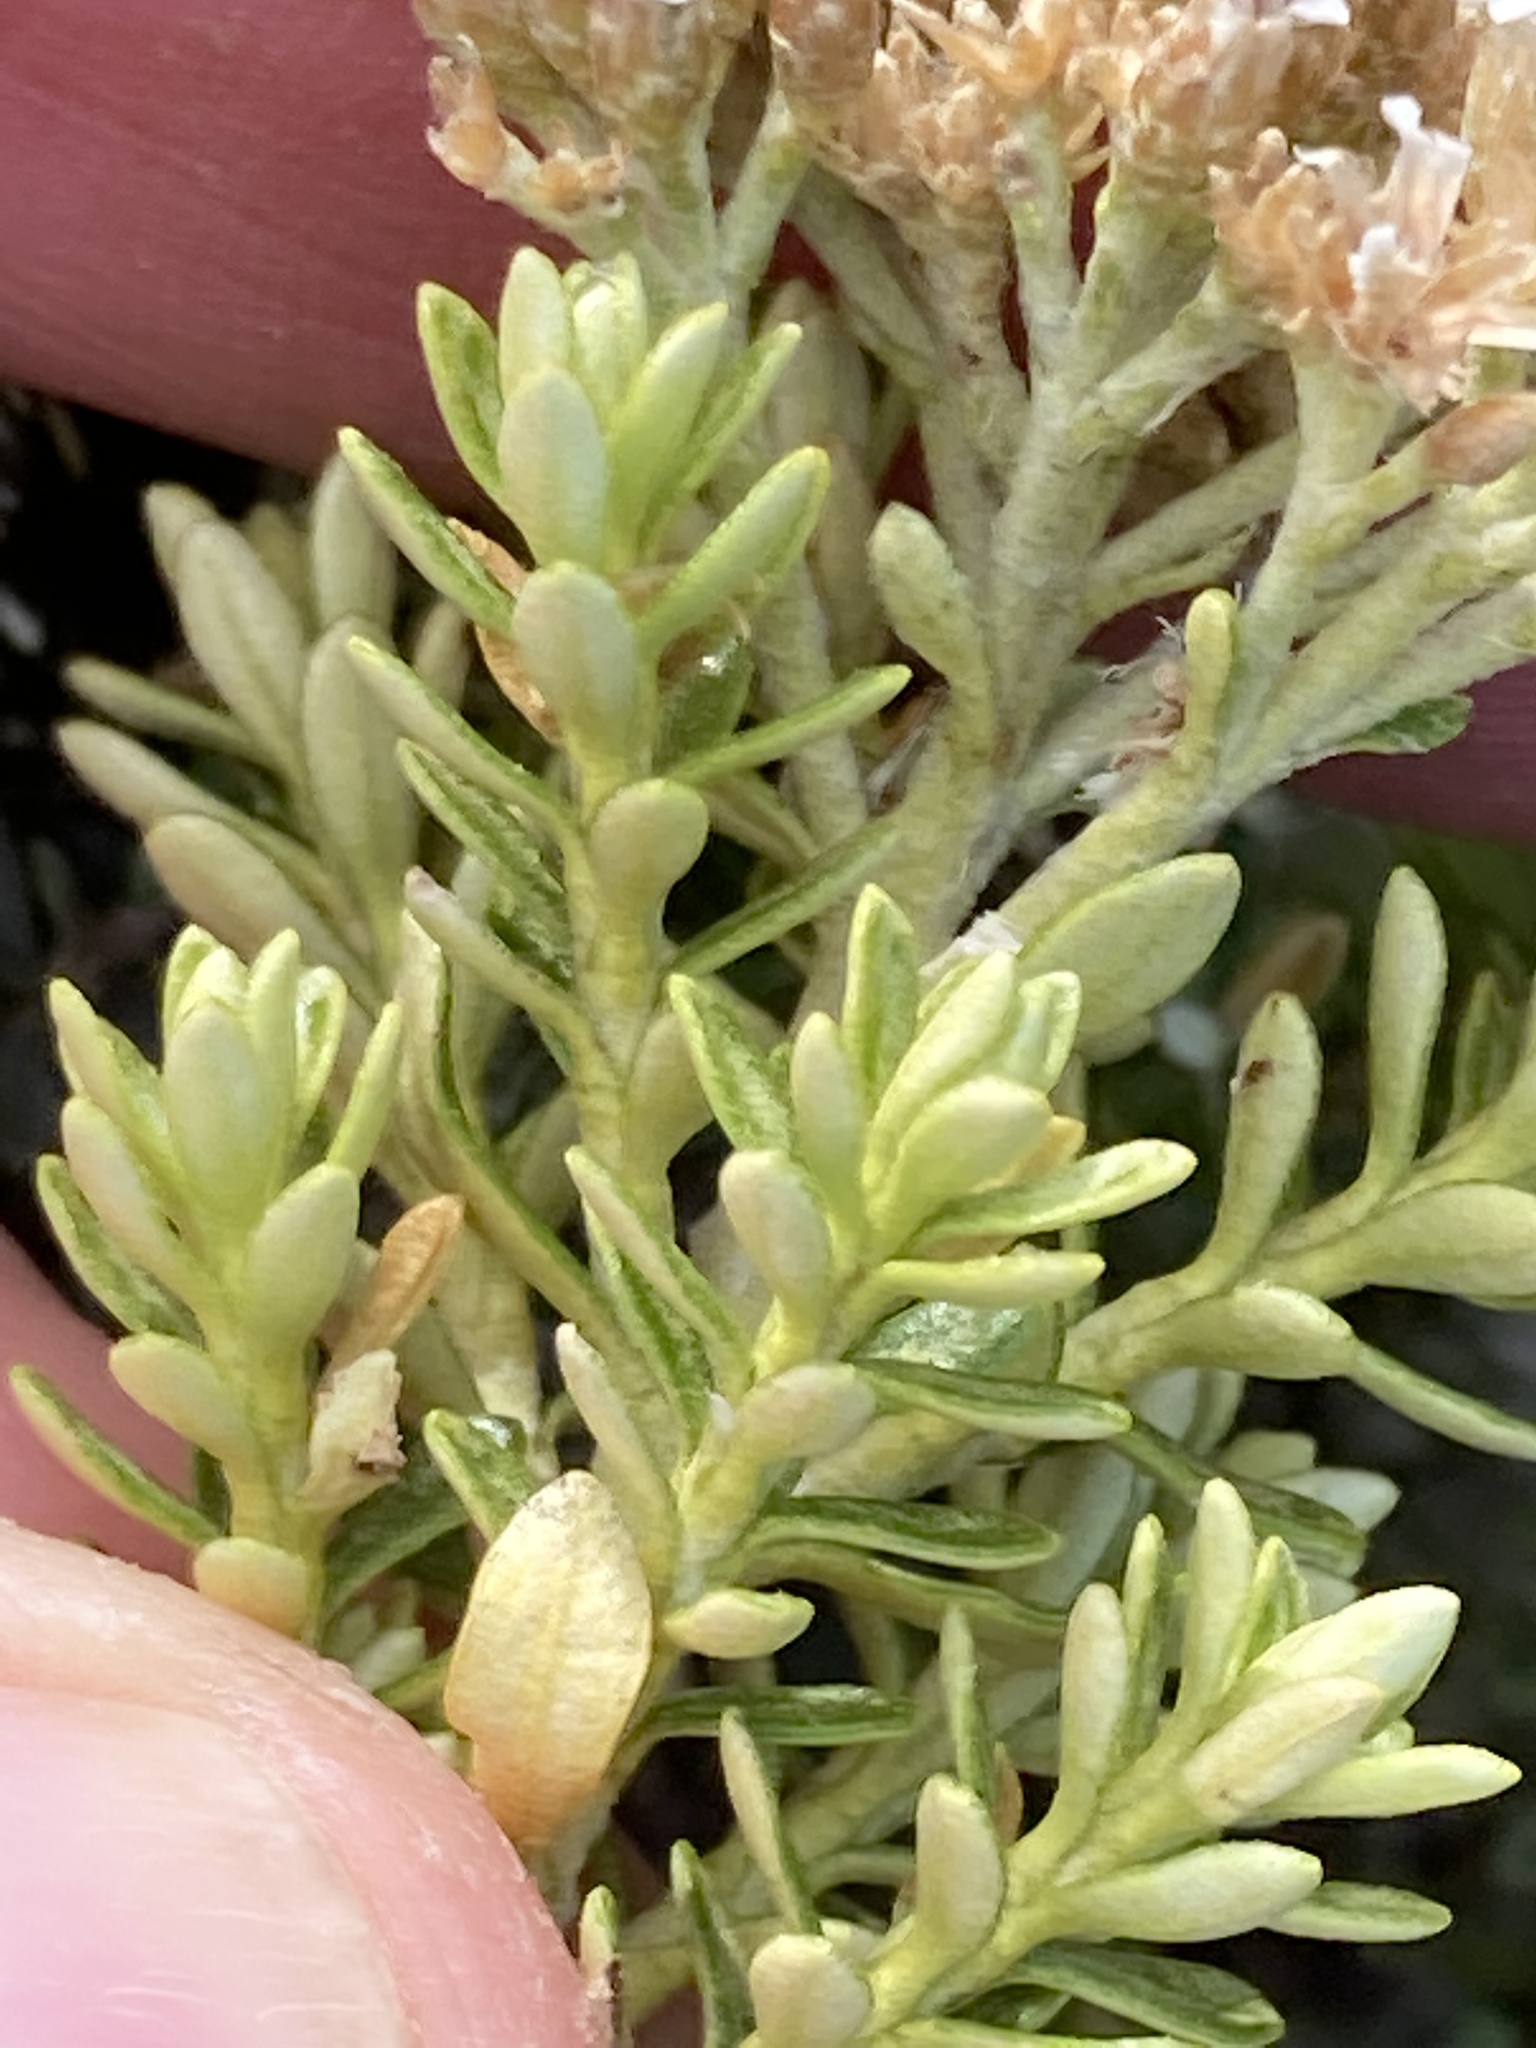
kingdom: Plantae
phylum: Tracheophyta
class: Magnoliopsida
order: Asterales
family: Asteraceae
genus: Ozothamnus
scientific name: Ozothamnus leptophyllus
